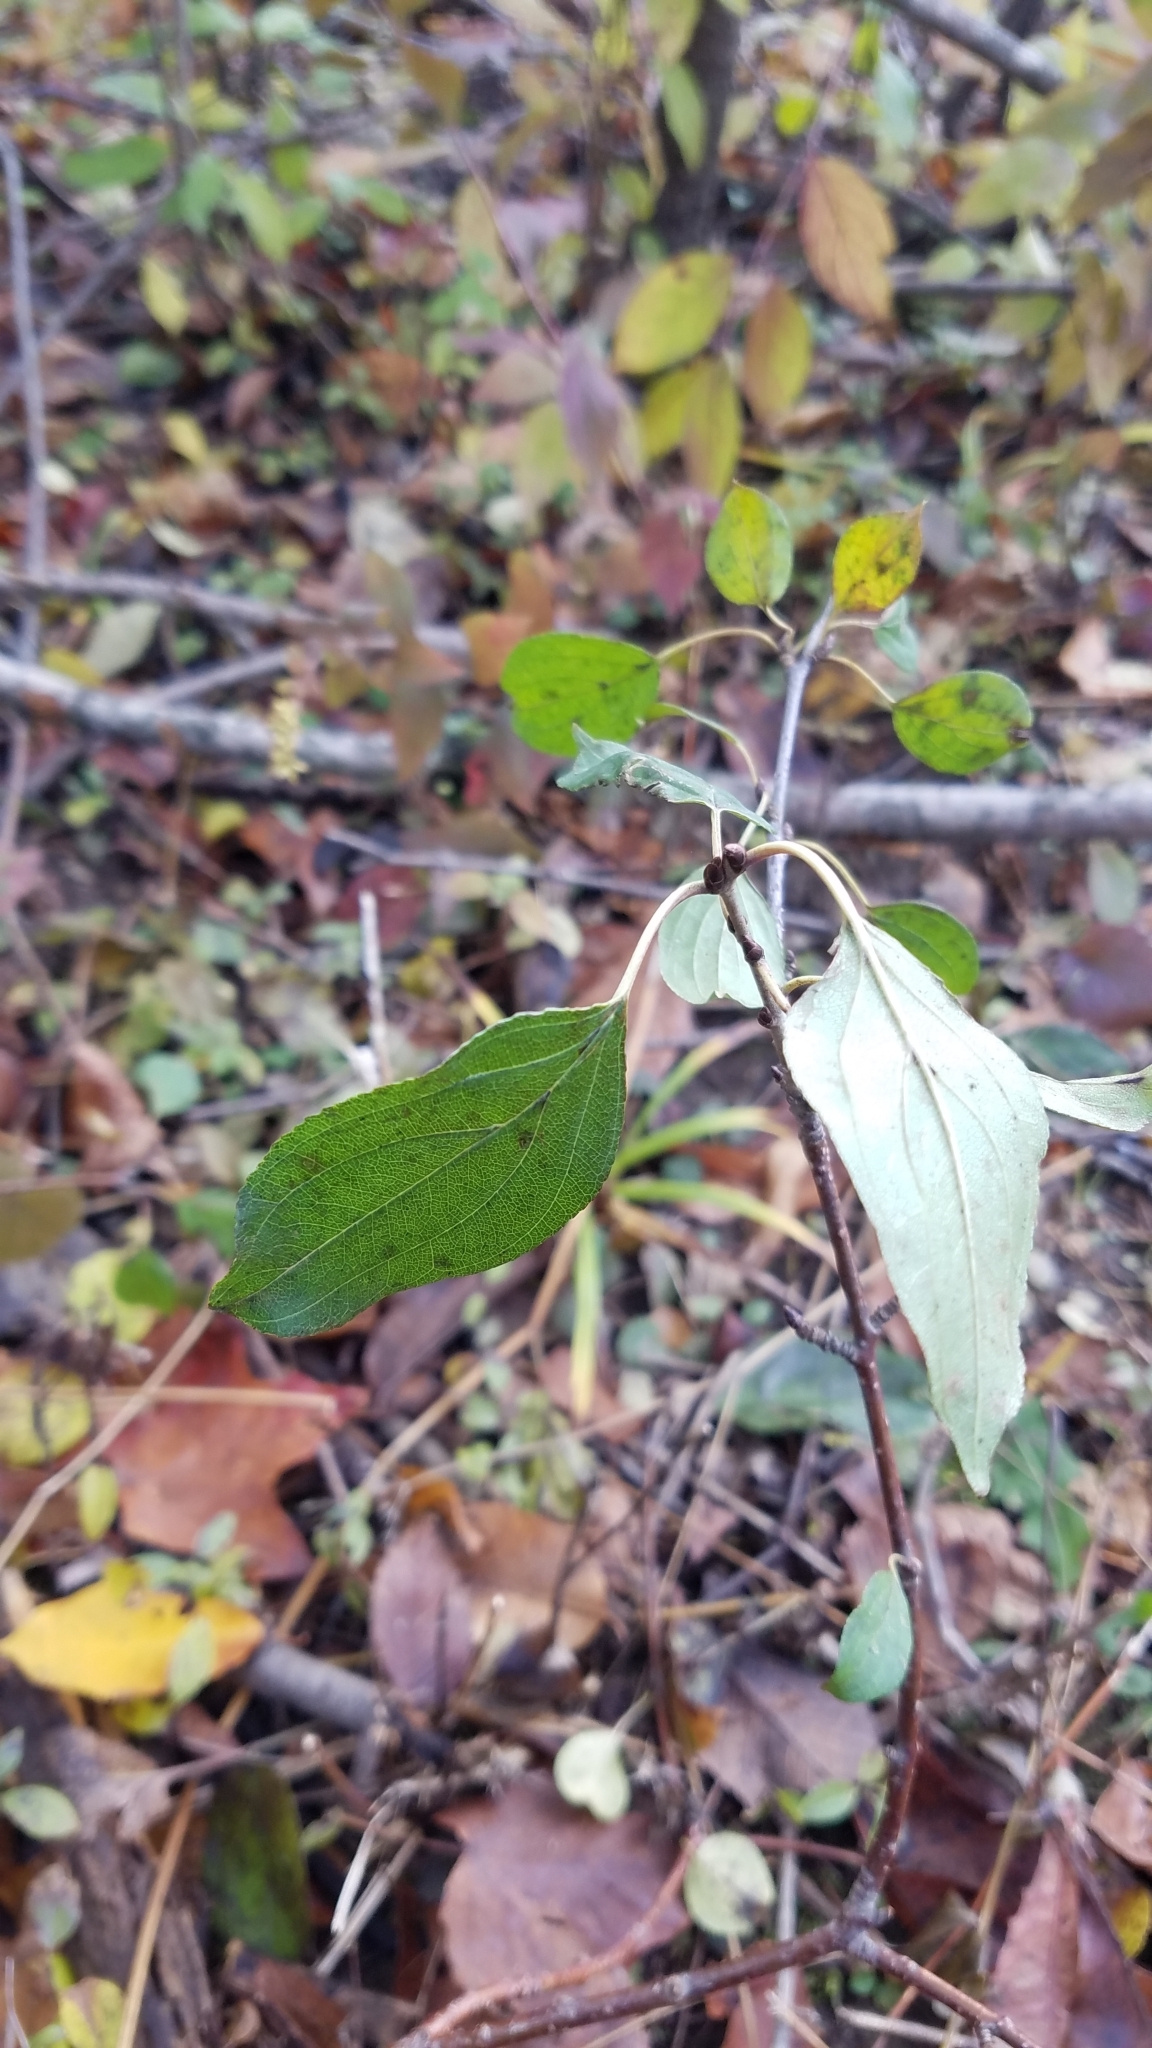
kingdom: Plantae
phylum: Tracheophyta
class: Magnoliopsida
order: Rosales
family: Rhamnaceae
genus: Rhamnus
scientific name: Rhamnus cathartica
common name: Common buckthorn
